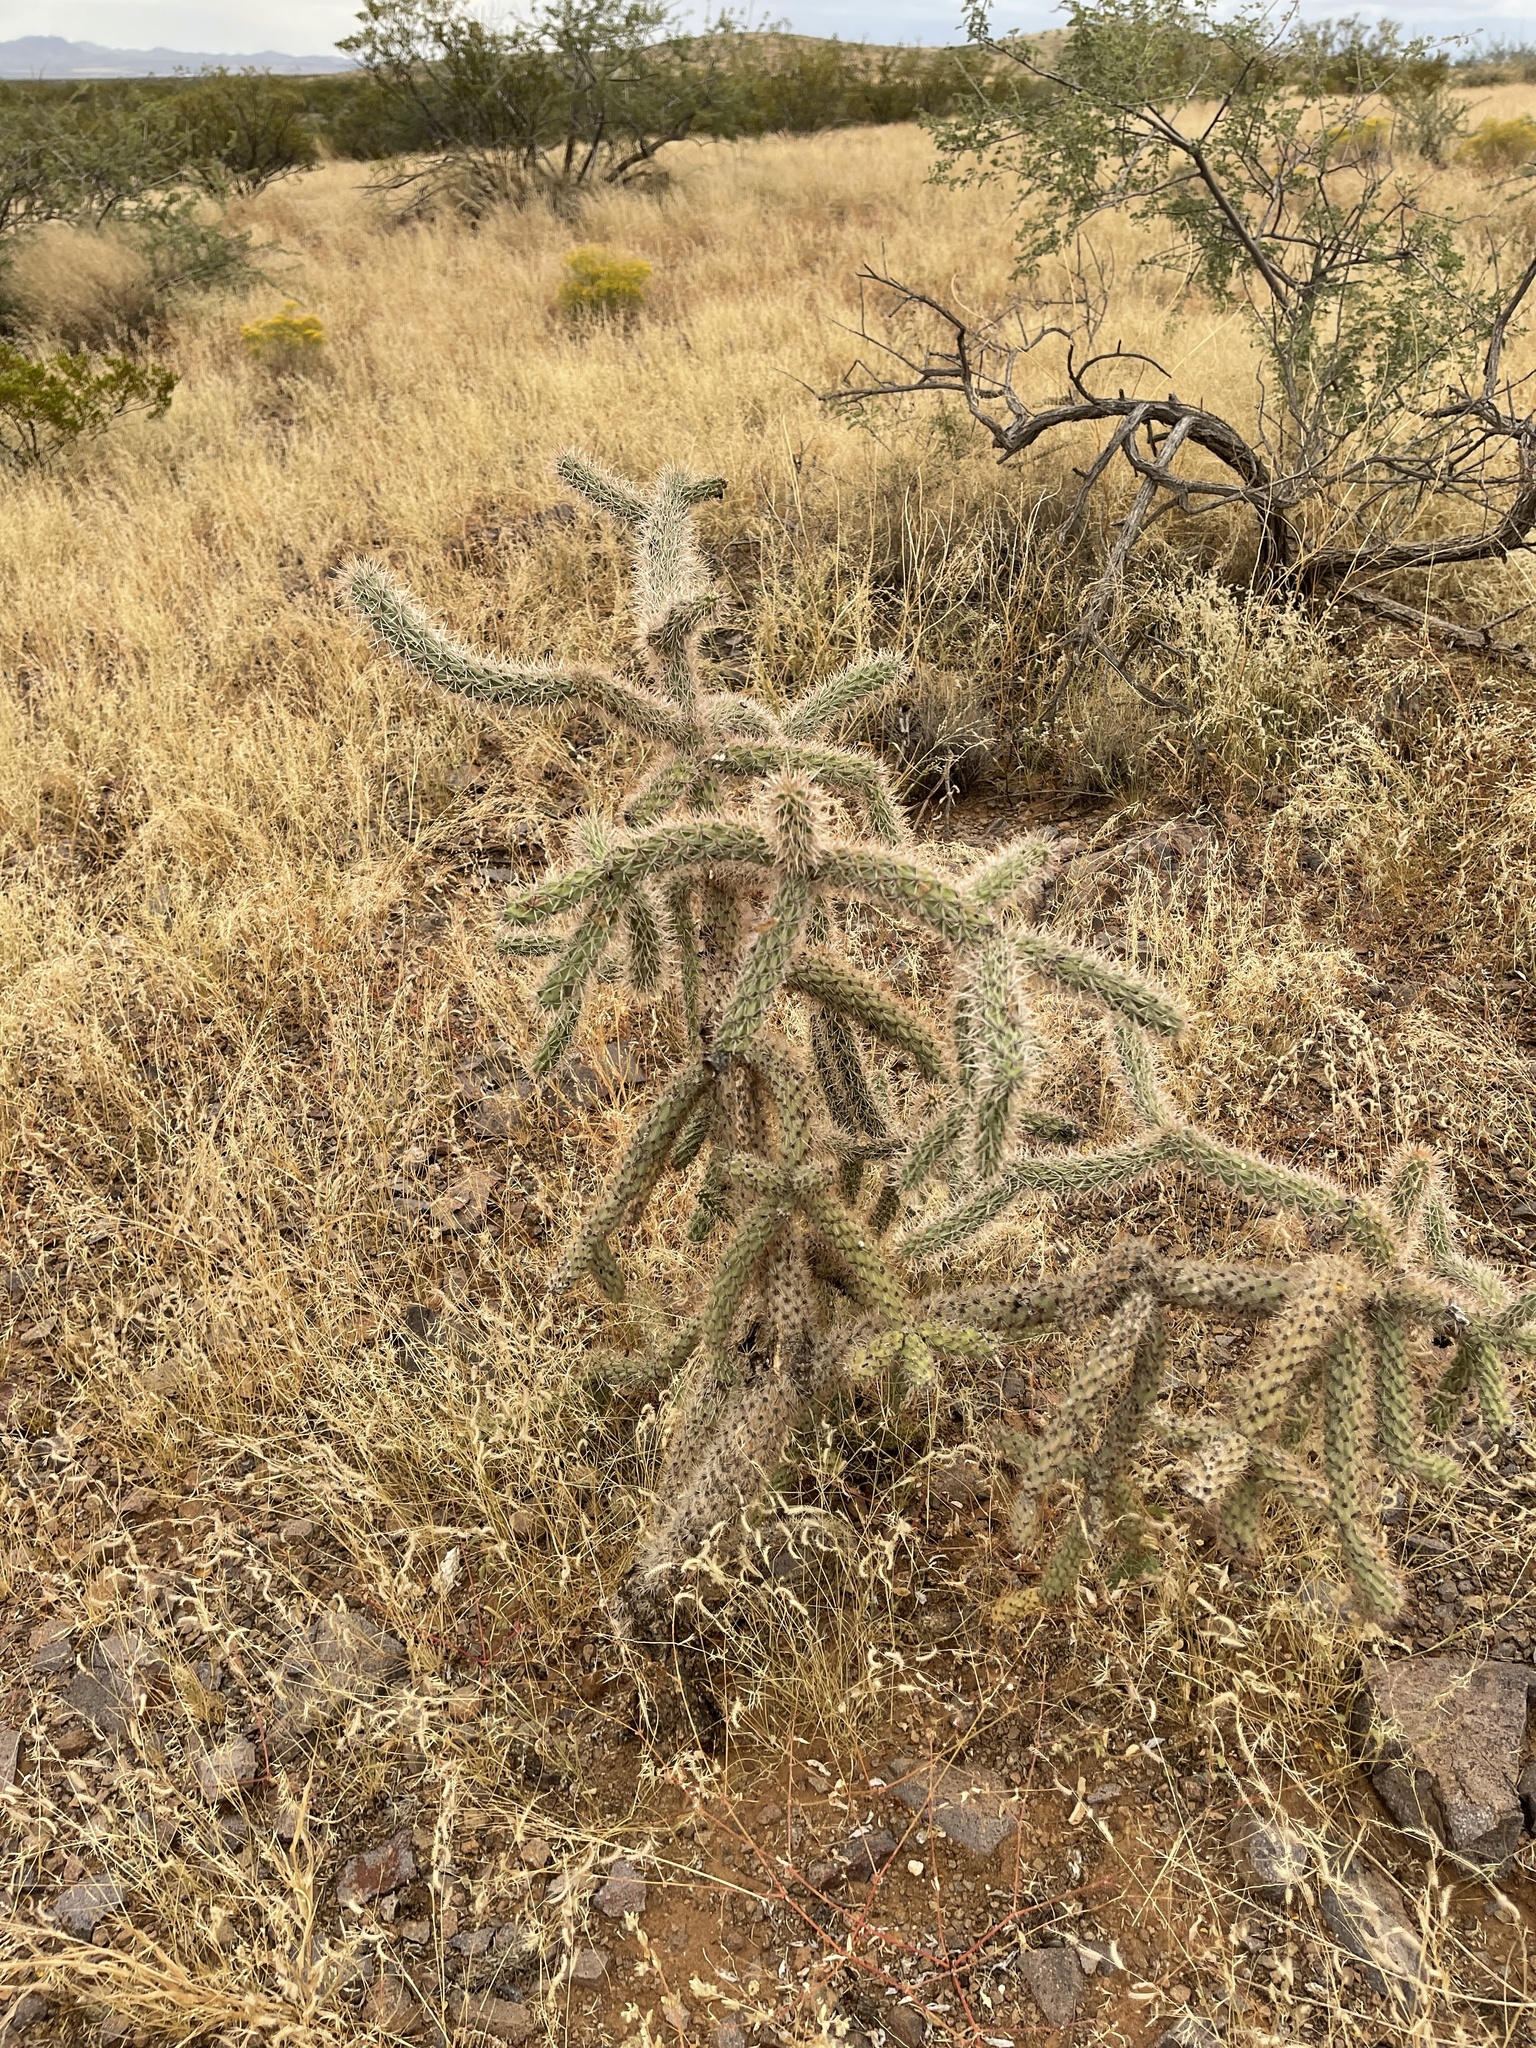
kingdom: Plantae
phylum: Tracheophyta
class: Magnoliopsida
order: Caryophyllales
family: Cactaceae
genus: Cylindropuntia
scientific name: Cylindropuntia imbricata
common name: Candelabrum cactus
